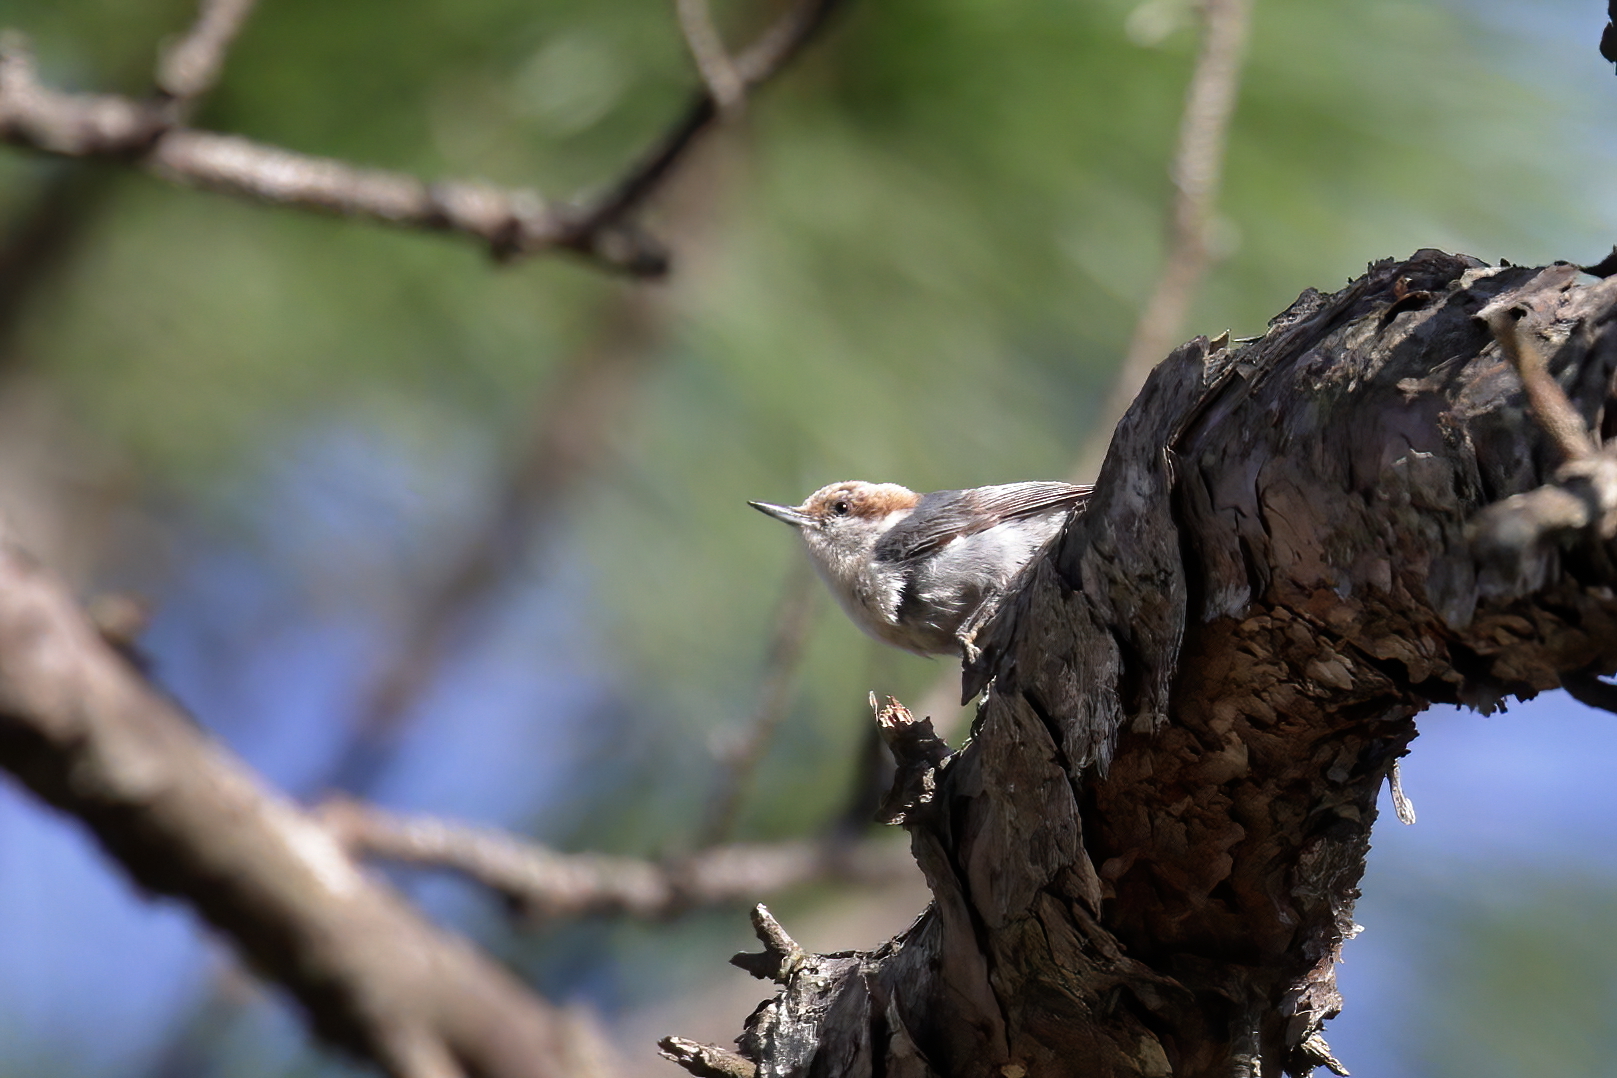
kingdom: Animalia
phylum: Chordata
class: Aves
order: Passeriformes
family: Sittidae
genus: Sitta
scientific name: Sitta pusilla
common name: Brown-headed nuthatch
